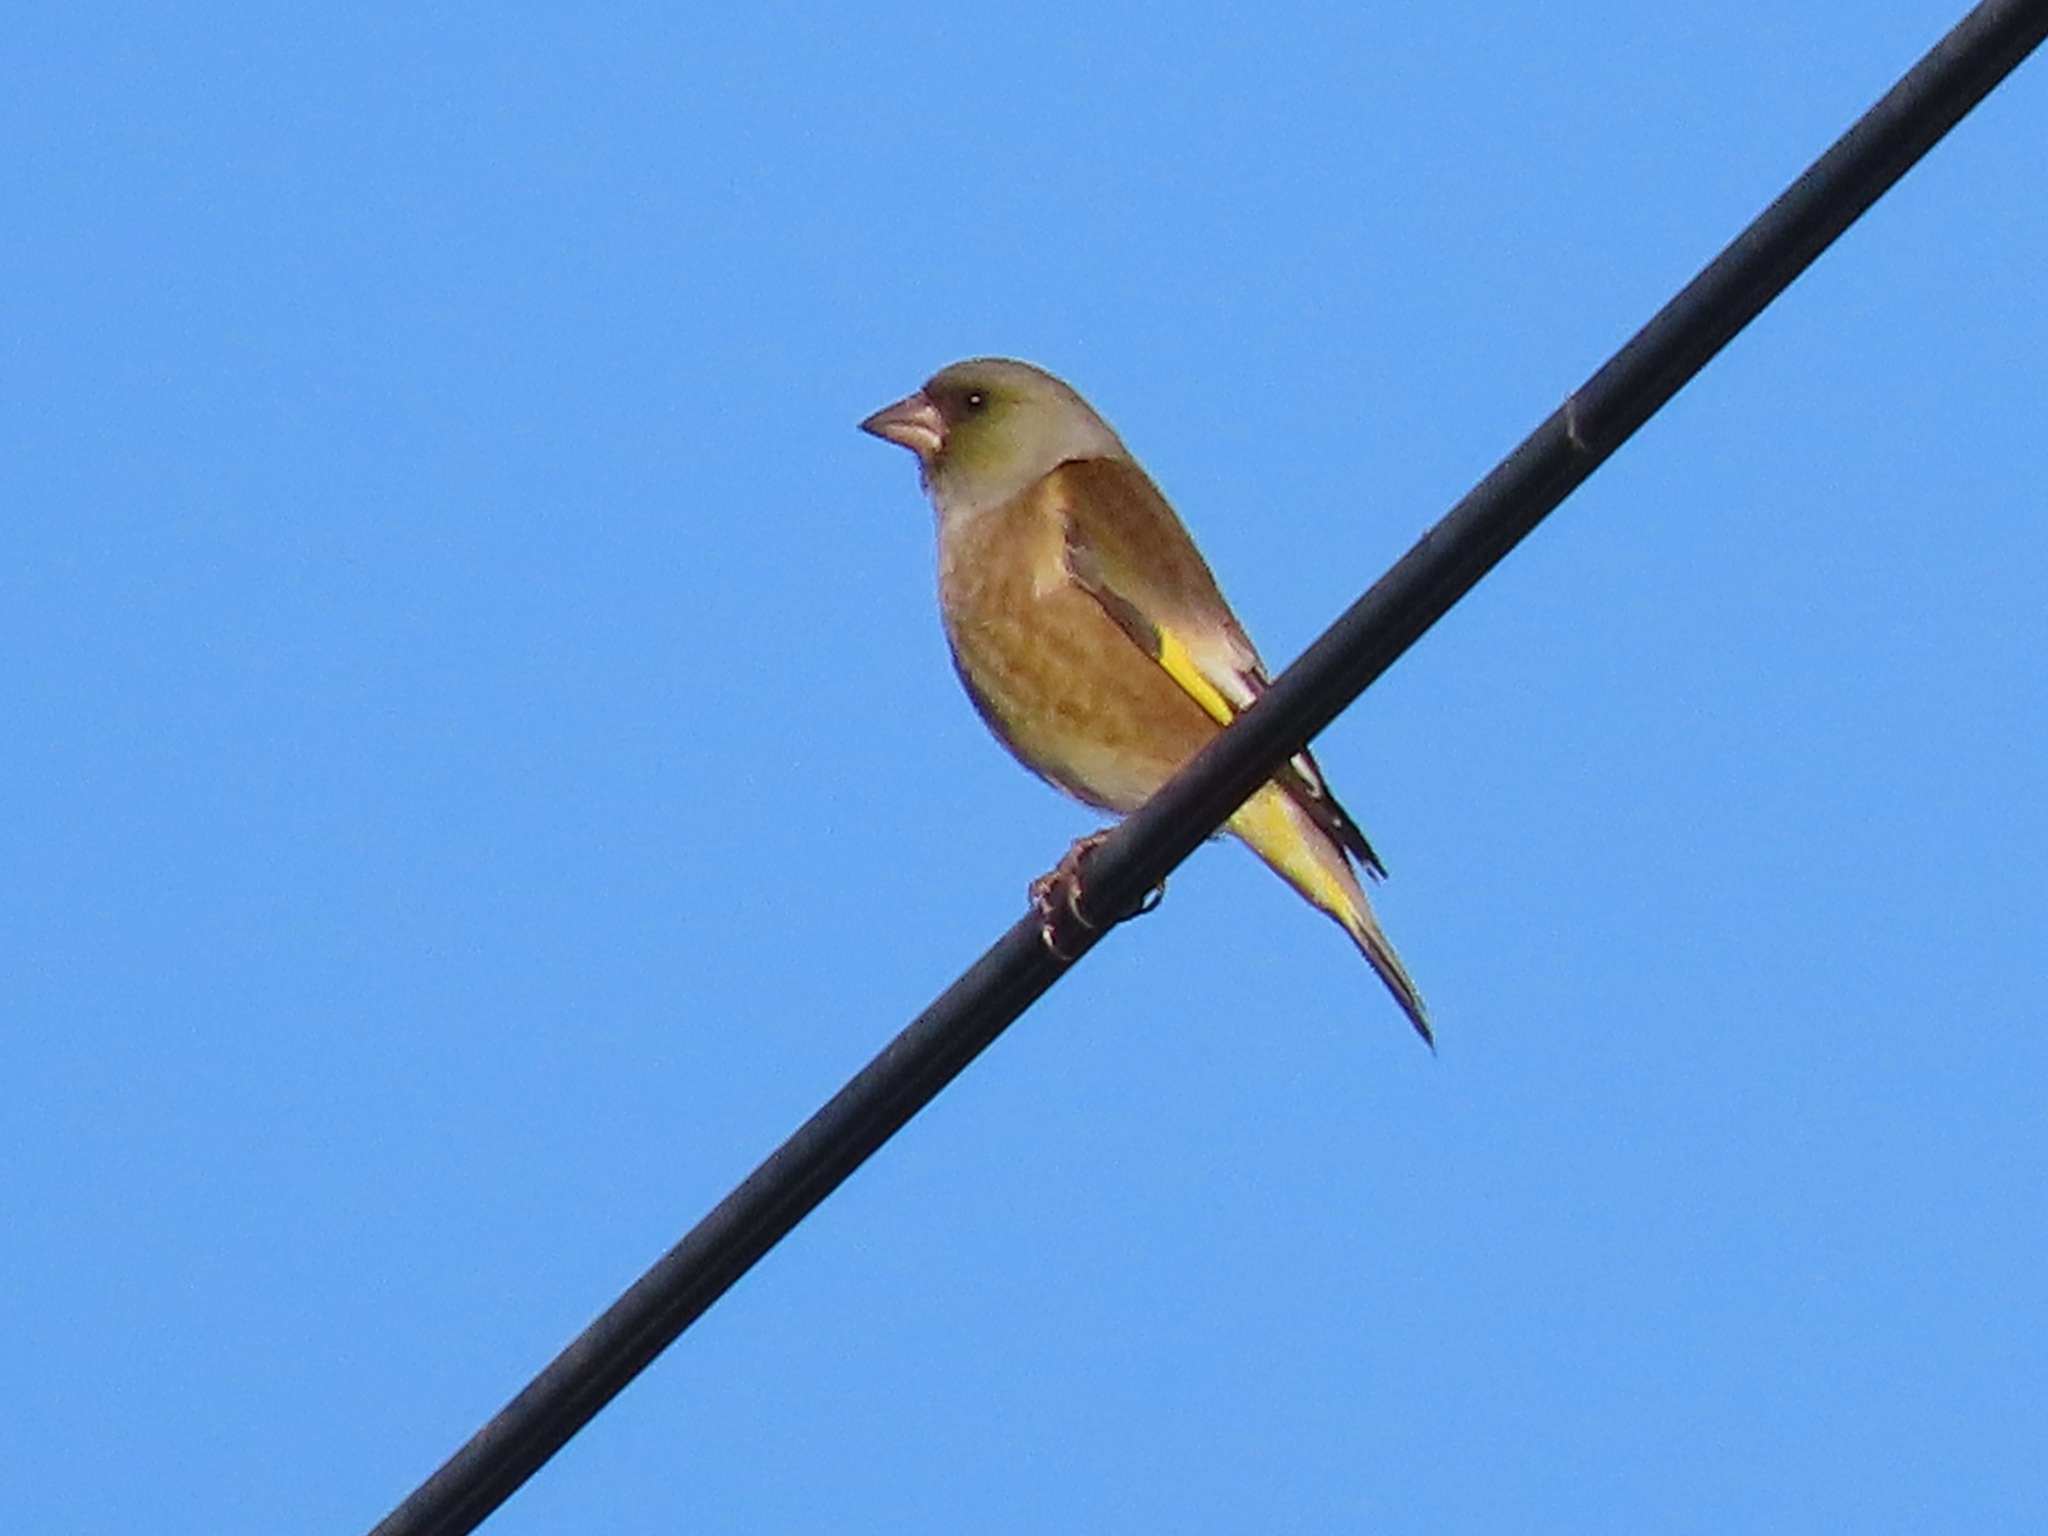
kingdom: Plantae
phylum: Tracheophyta
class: Liliopsida
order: Poales
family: Poaceae
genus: Chloris
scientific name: Chloris sinica
